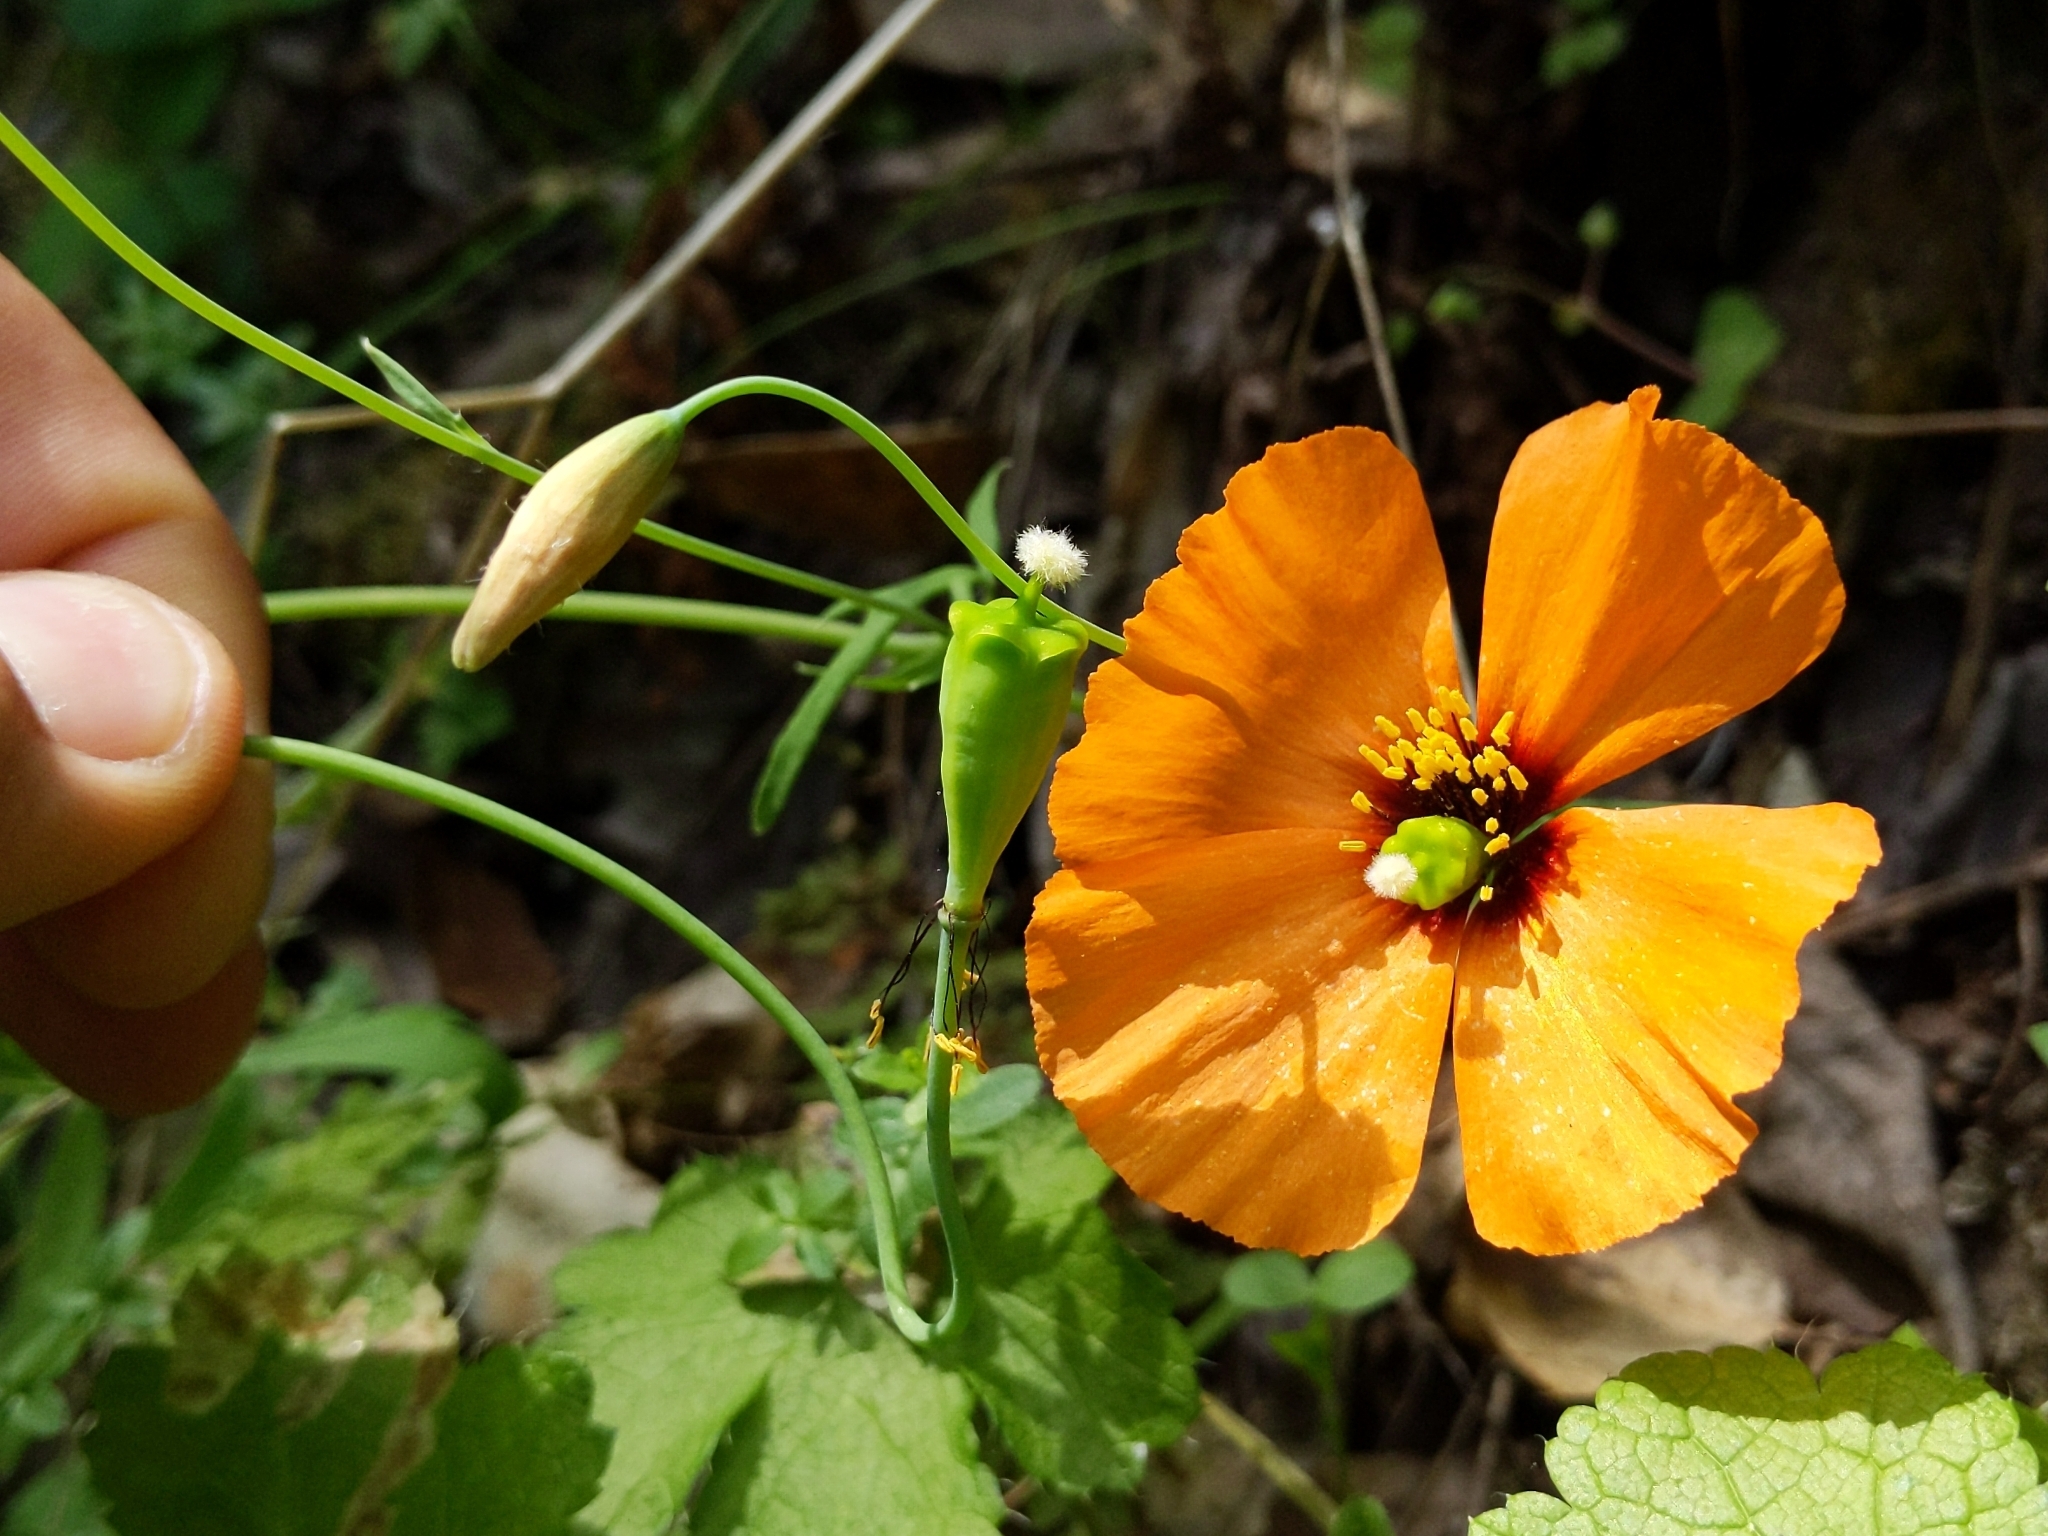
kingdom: Plantae
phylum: Tracheophyta
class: Magnoliopsida
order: Ranunculales
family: Papaveraceae
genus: Stylomecon
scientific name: Stylomecon heterophylla
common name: Flaming-poppy
